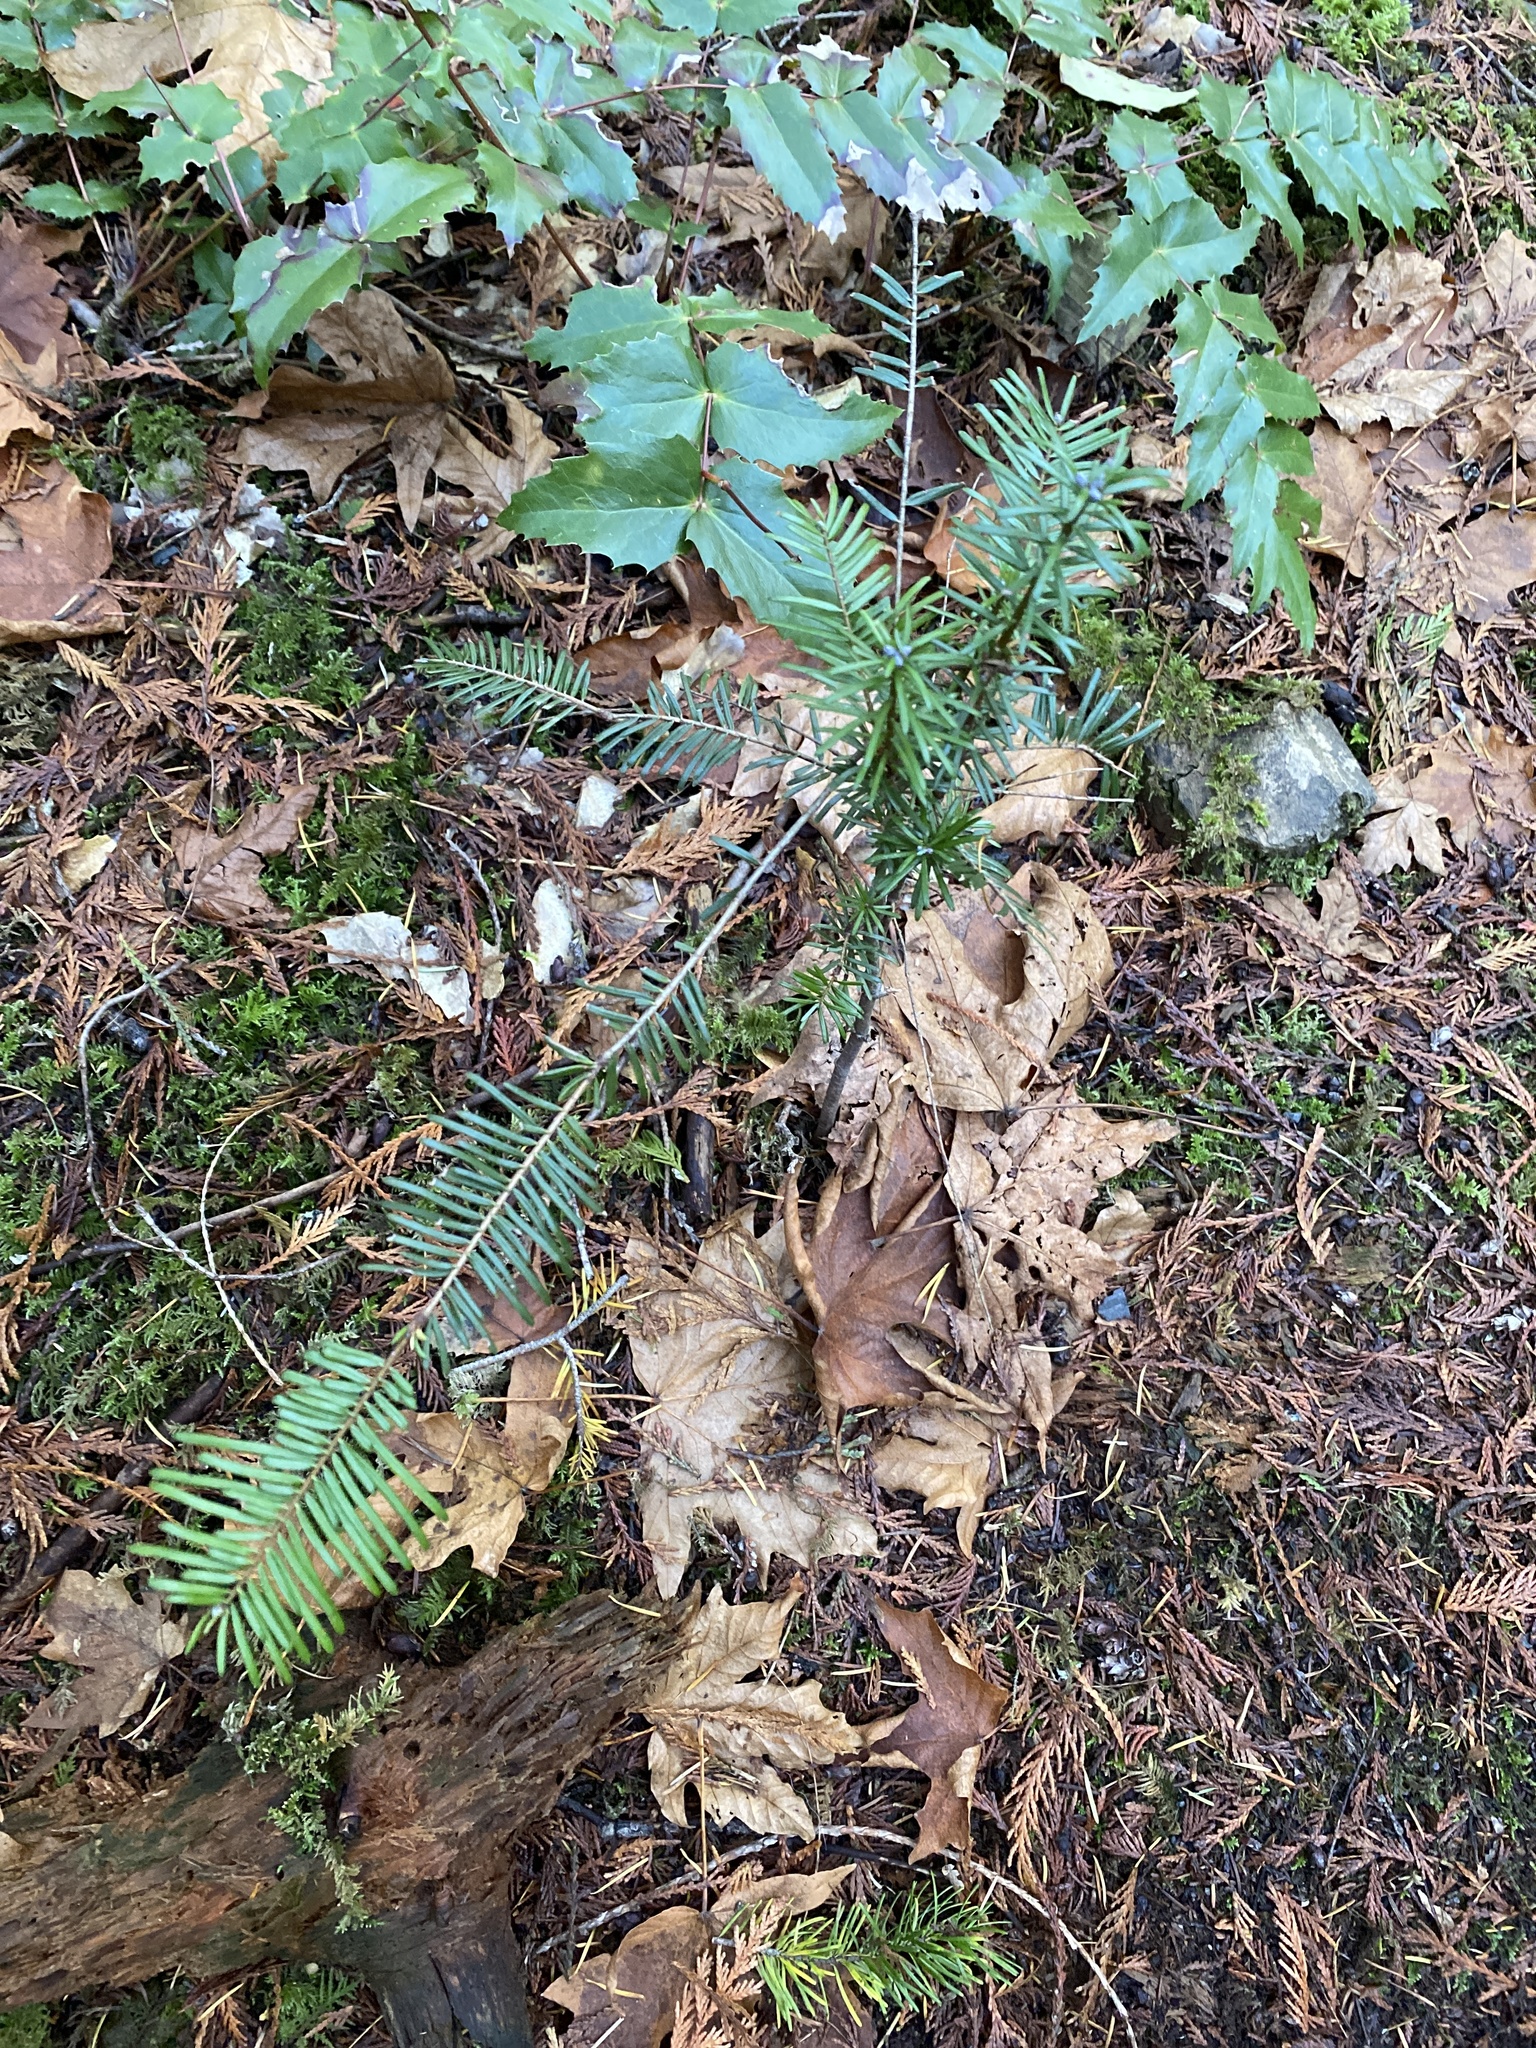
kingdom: Plantae
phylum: Tracheophyta
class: Pinopsida
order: Pinales
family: Pinaceae
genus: Abies
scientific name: Abies grandis
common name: Giant fir
